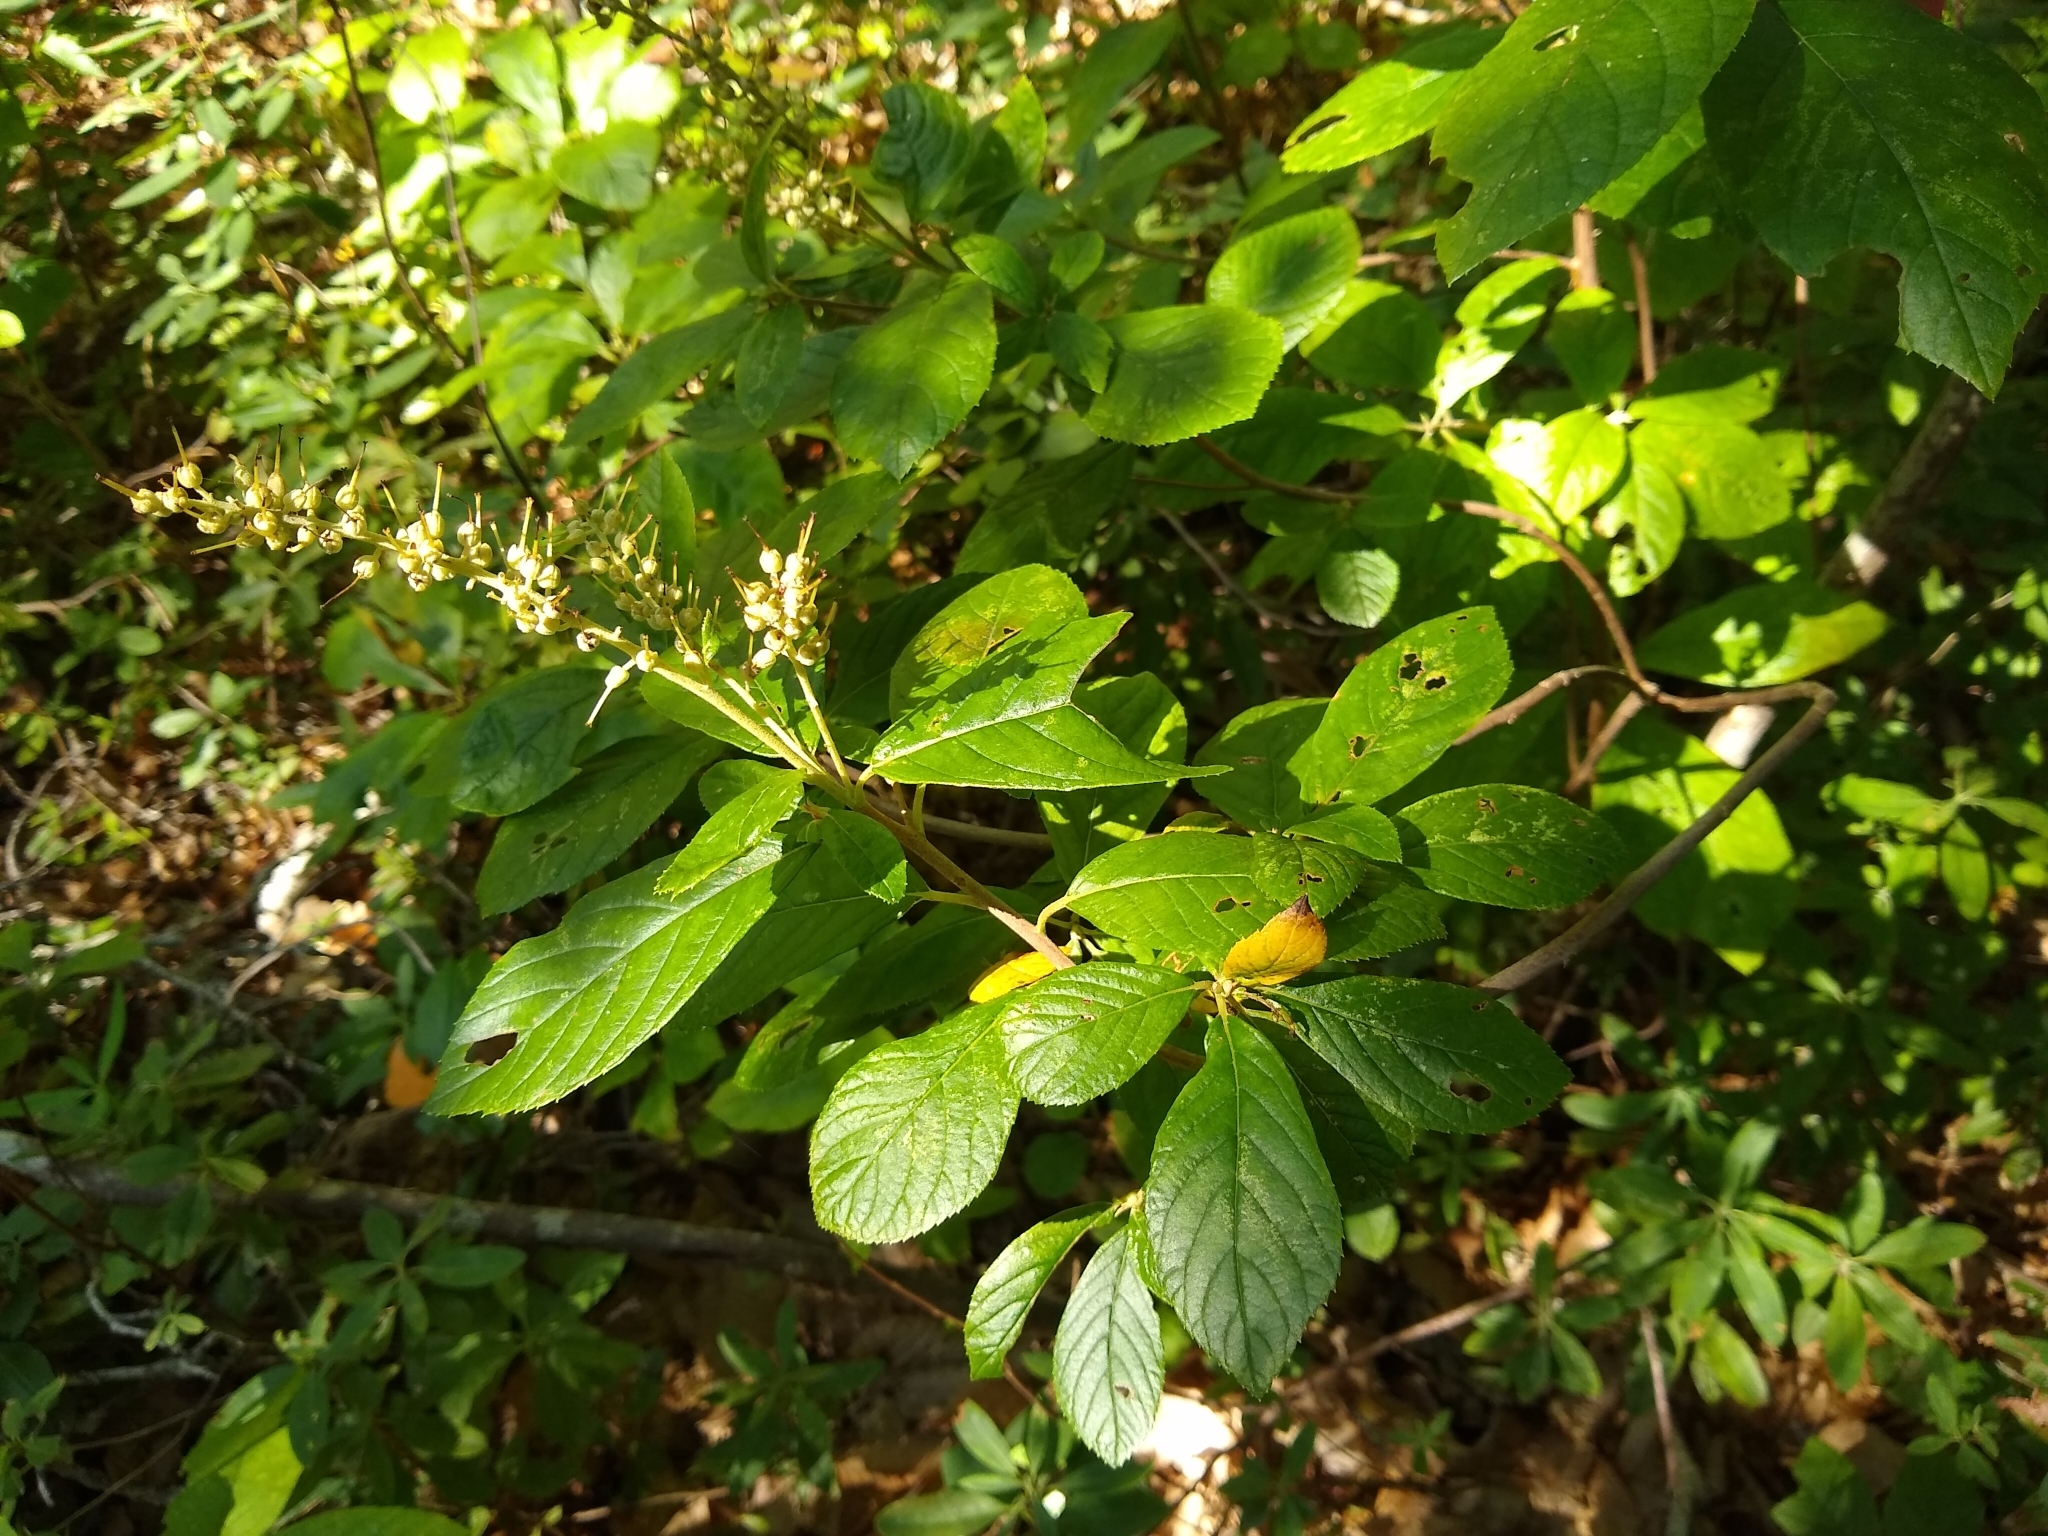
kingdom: Plantae
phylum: Tracheophyta
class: Magnoliopsida
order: Ericales
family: Clethraceae
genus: Clethra
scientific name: Clethra alnifolia
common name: Sweet pepperbush
